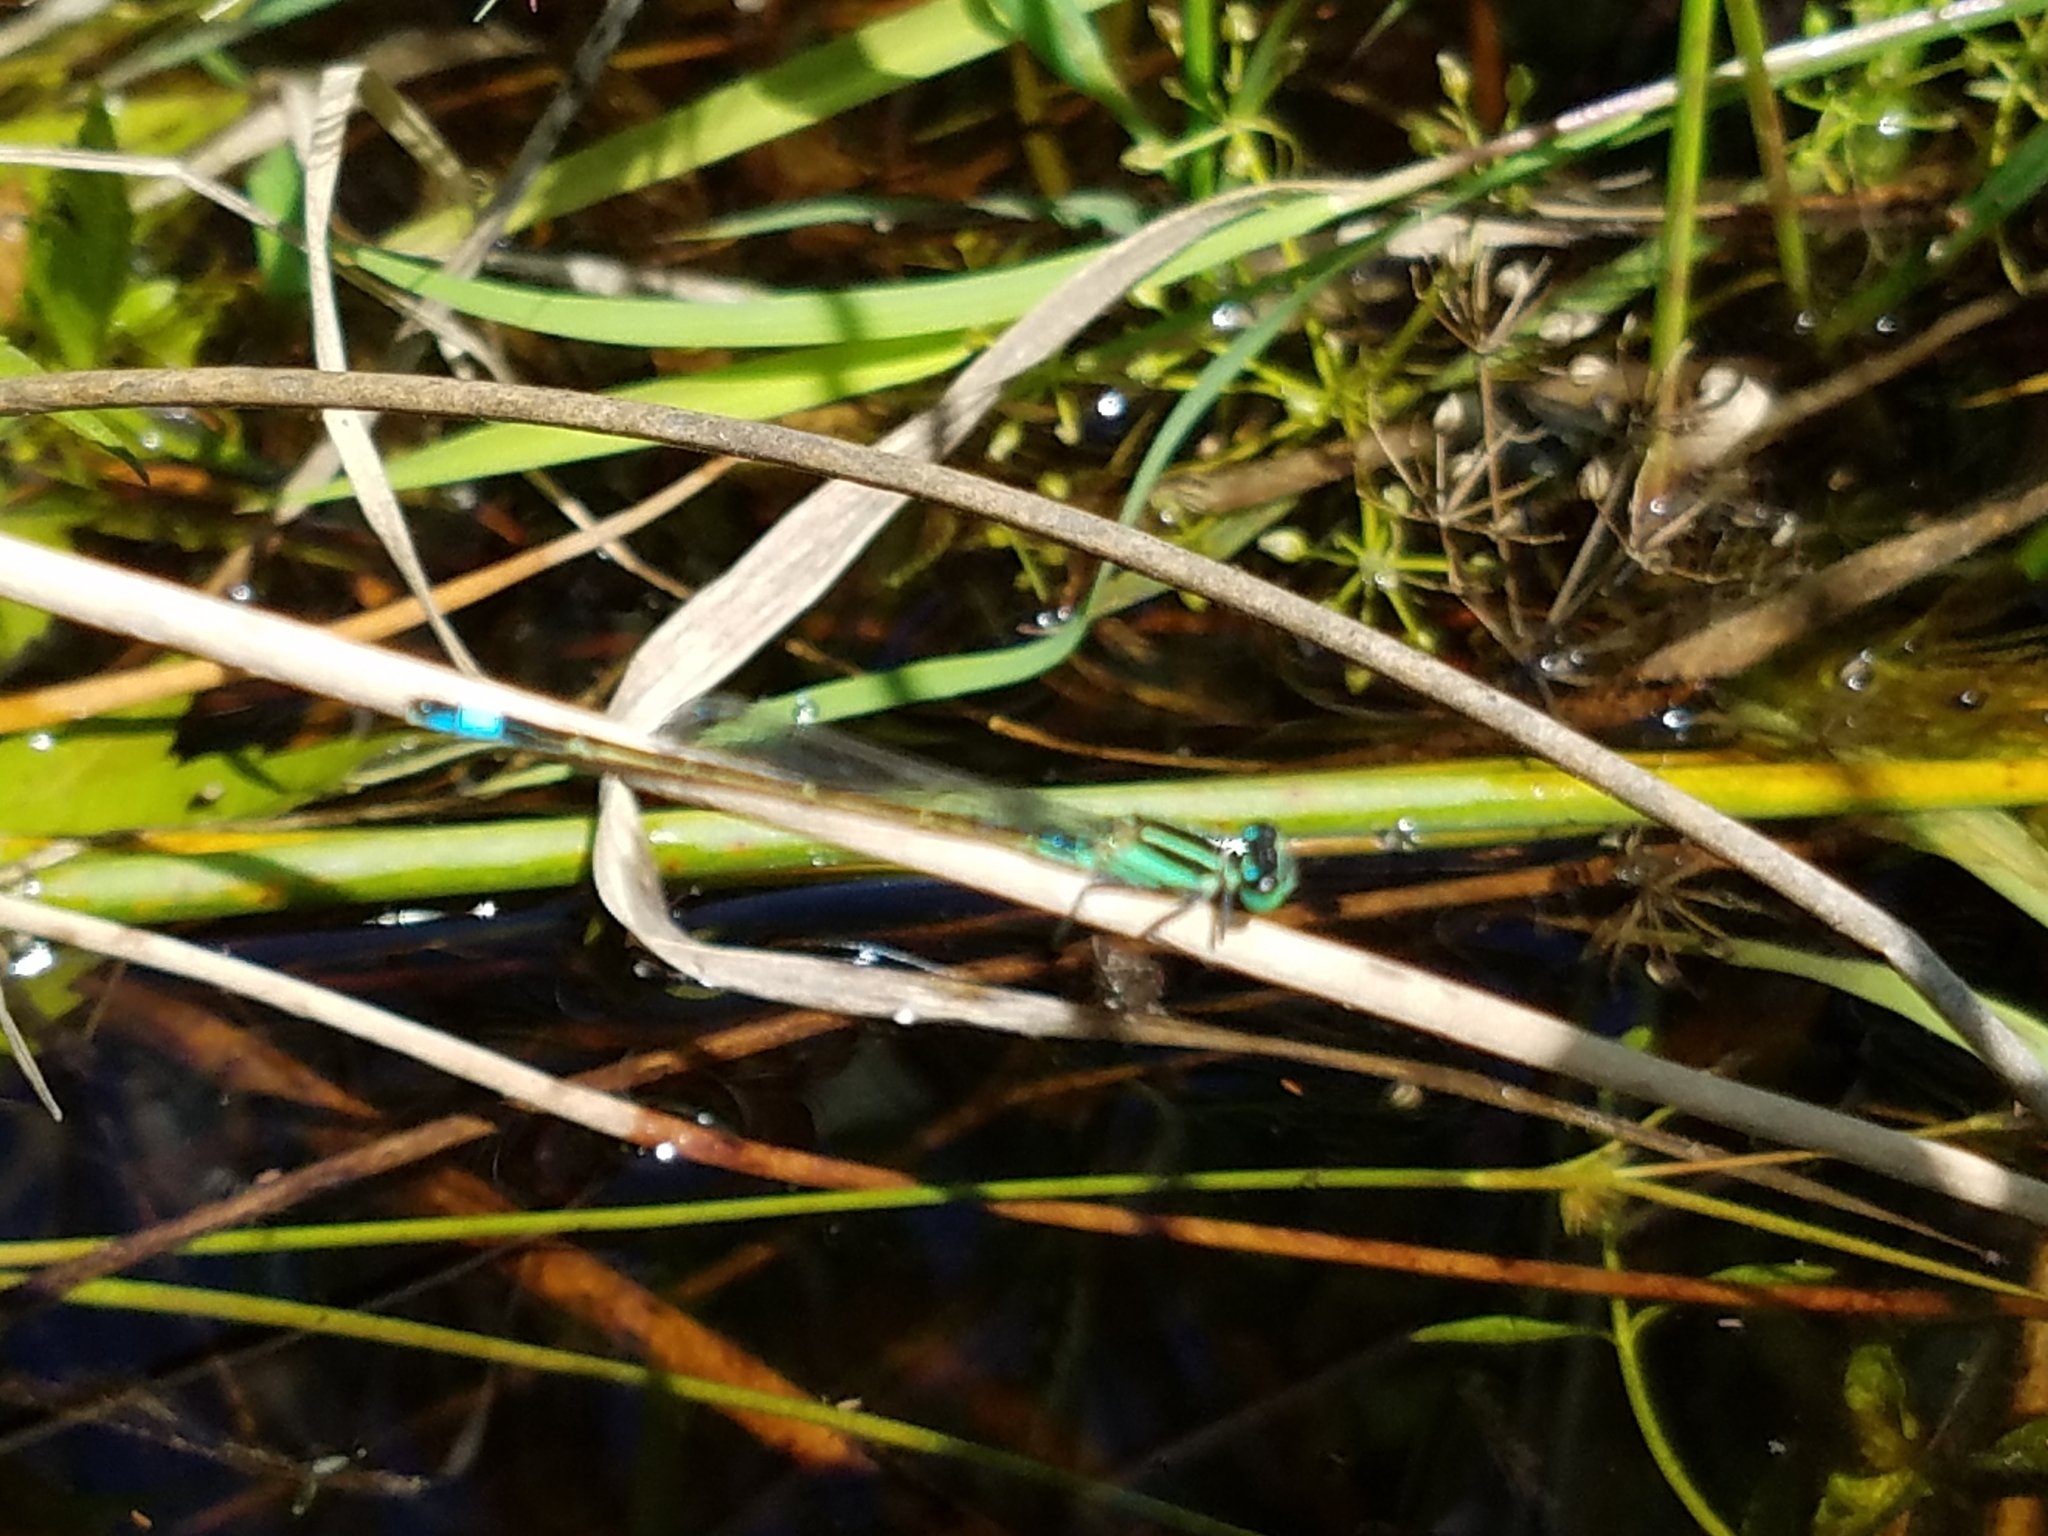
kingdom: Animalia
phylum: Arthropoda
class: Insecta
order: Odonata
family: Coenagrionidae
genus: Ischnura
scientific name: Ischnura ramburii
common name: Rambur's forktail
